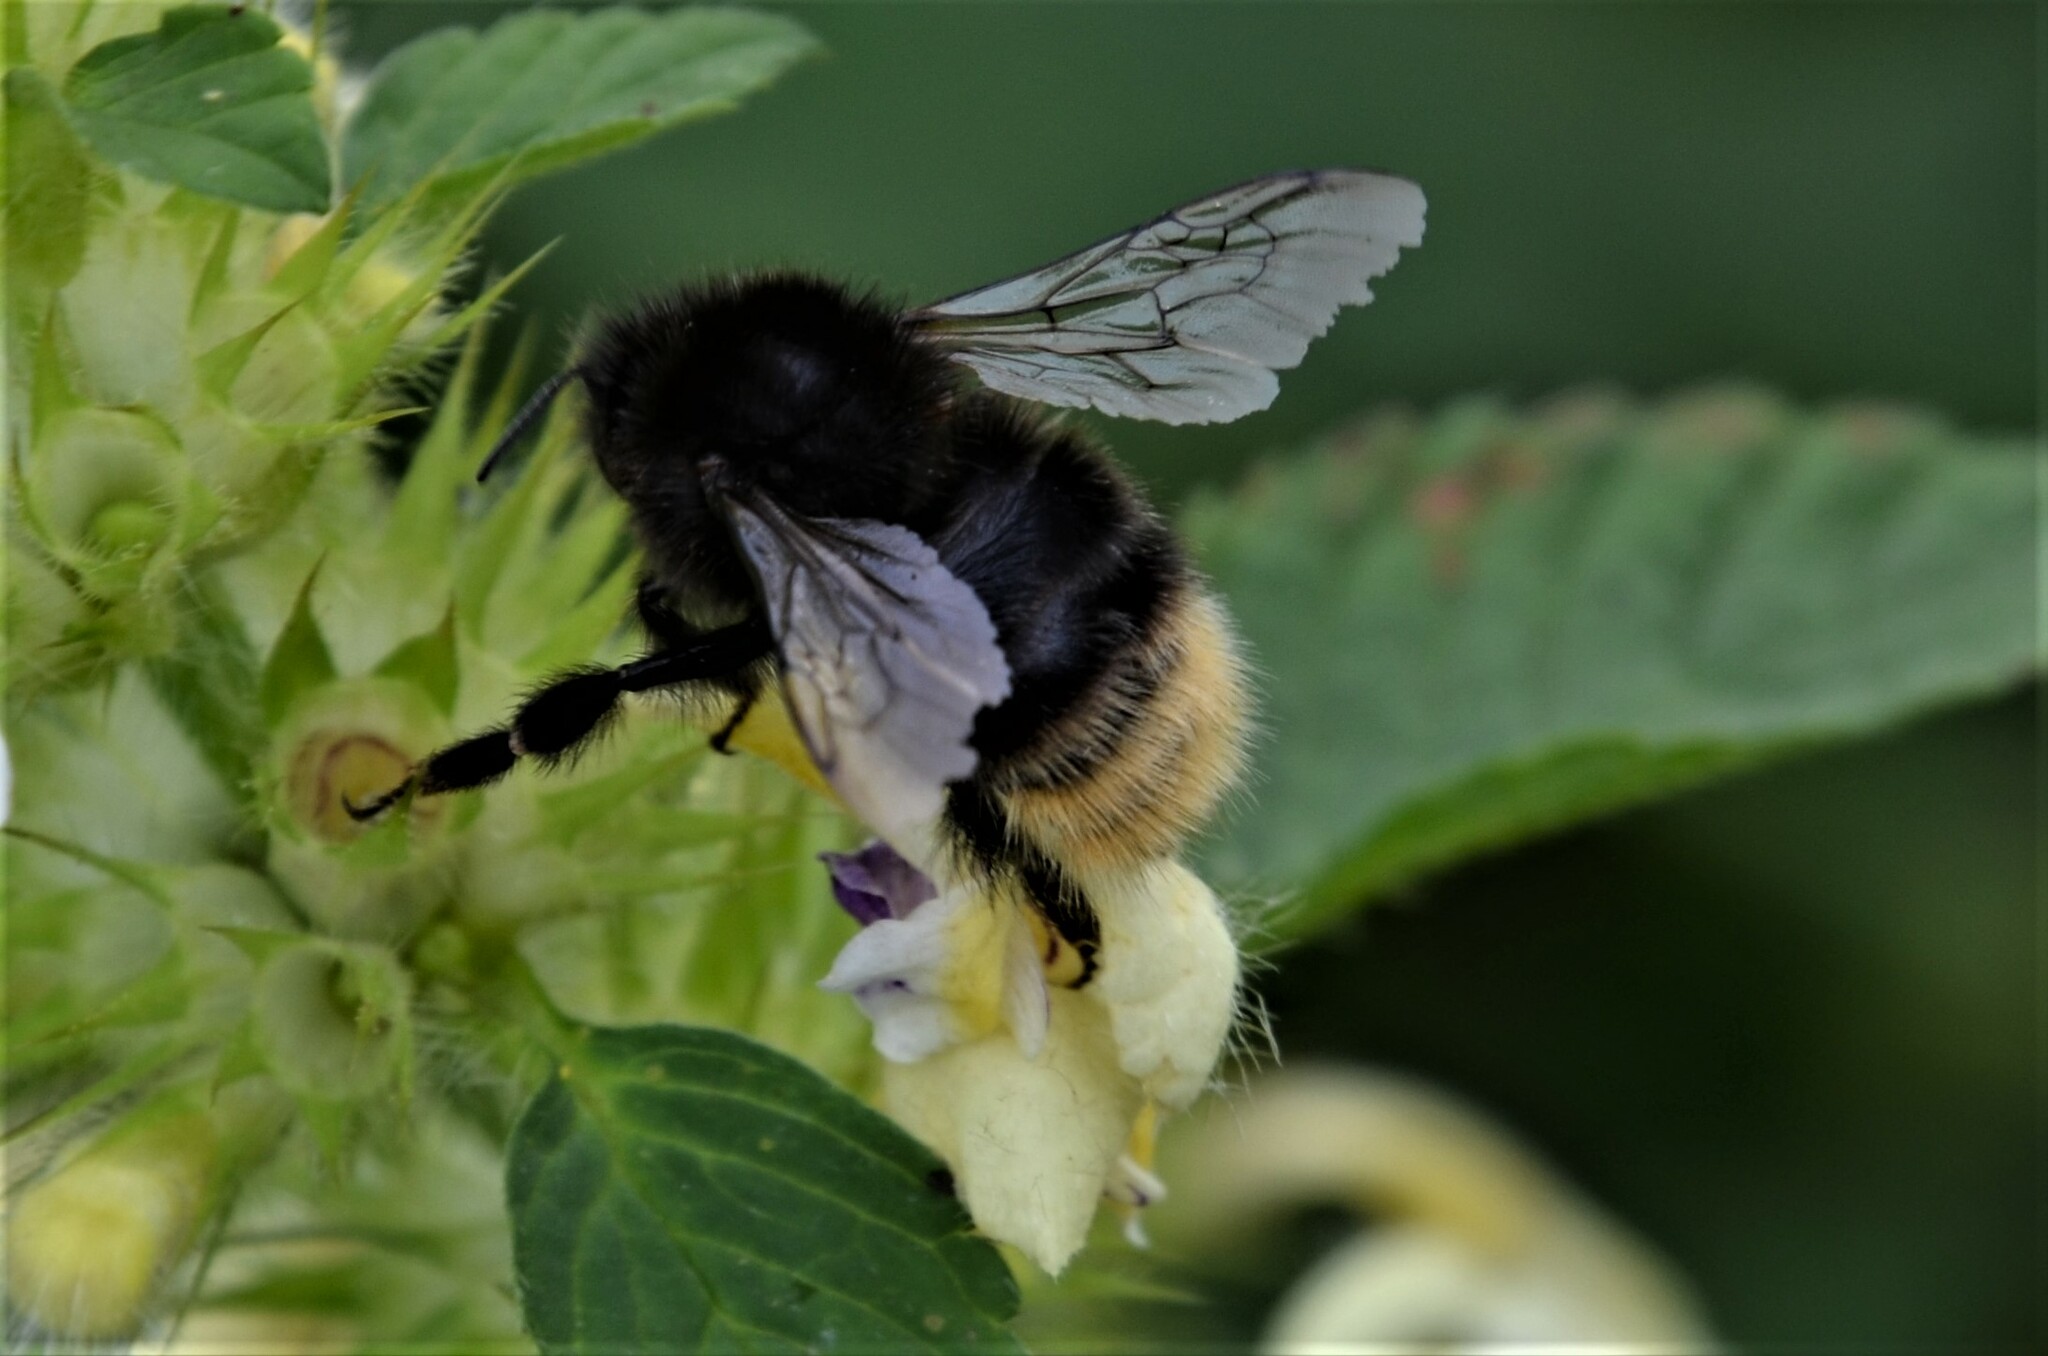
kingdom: Animalia
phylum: Arthropoda
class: Insecta
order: Hymenoptera
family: Apidae
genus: Bombus
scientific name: Bombus wurflenii
